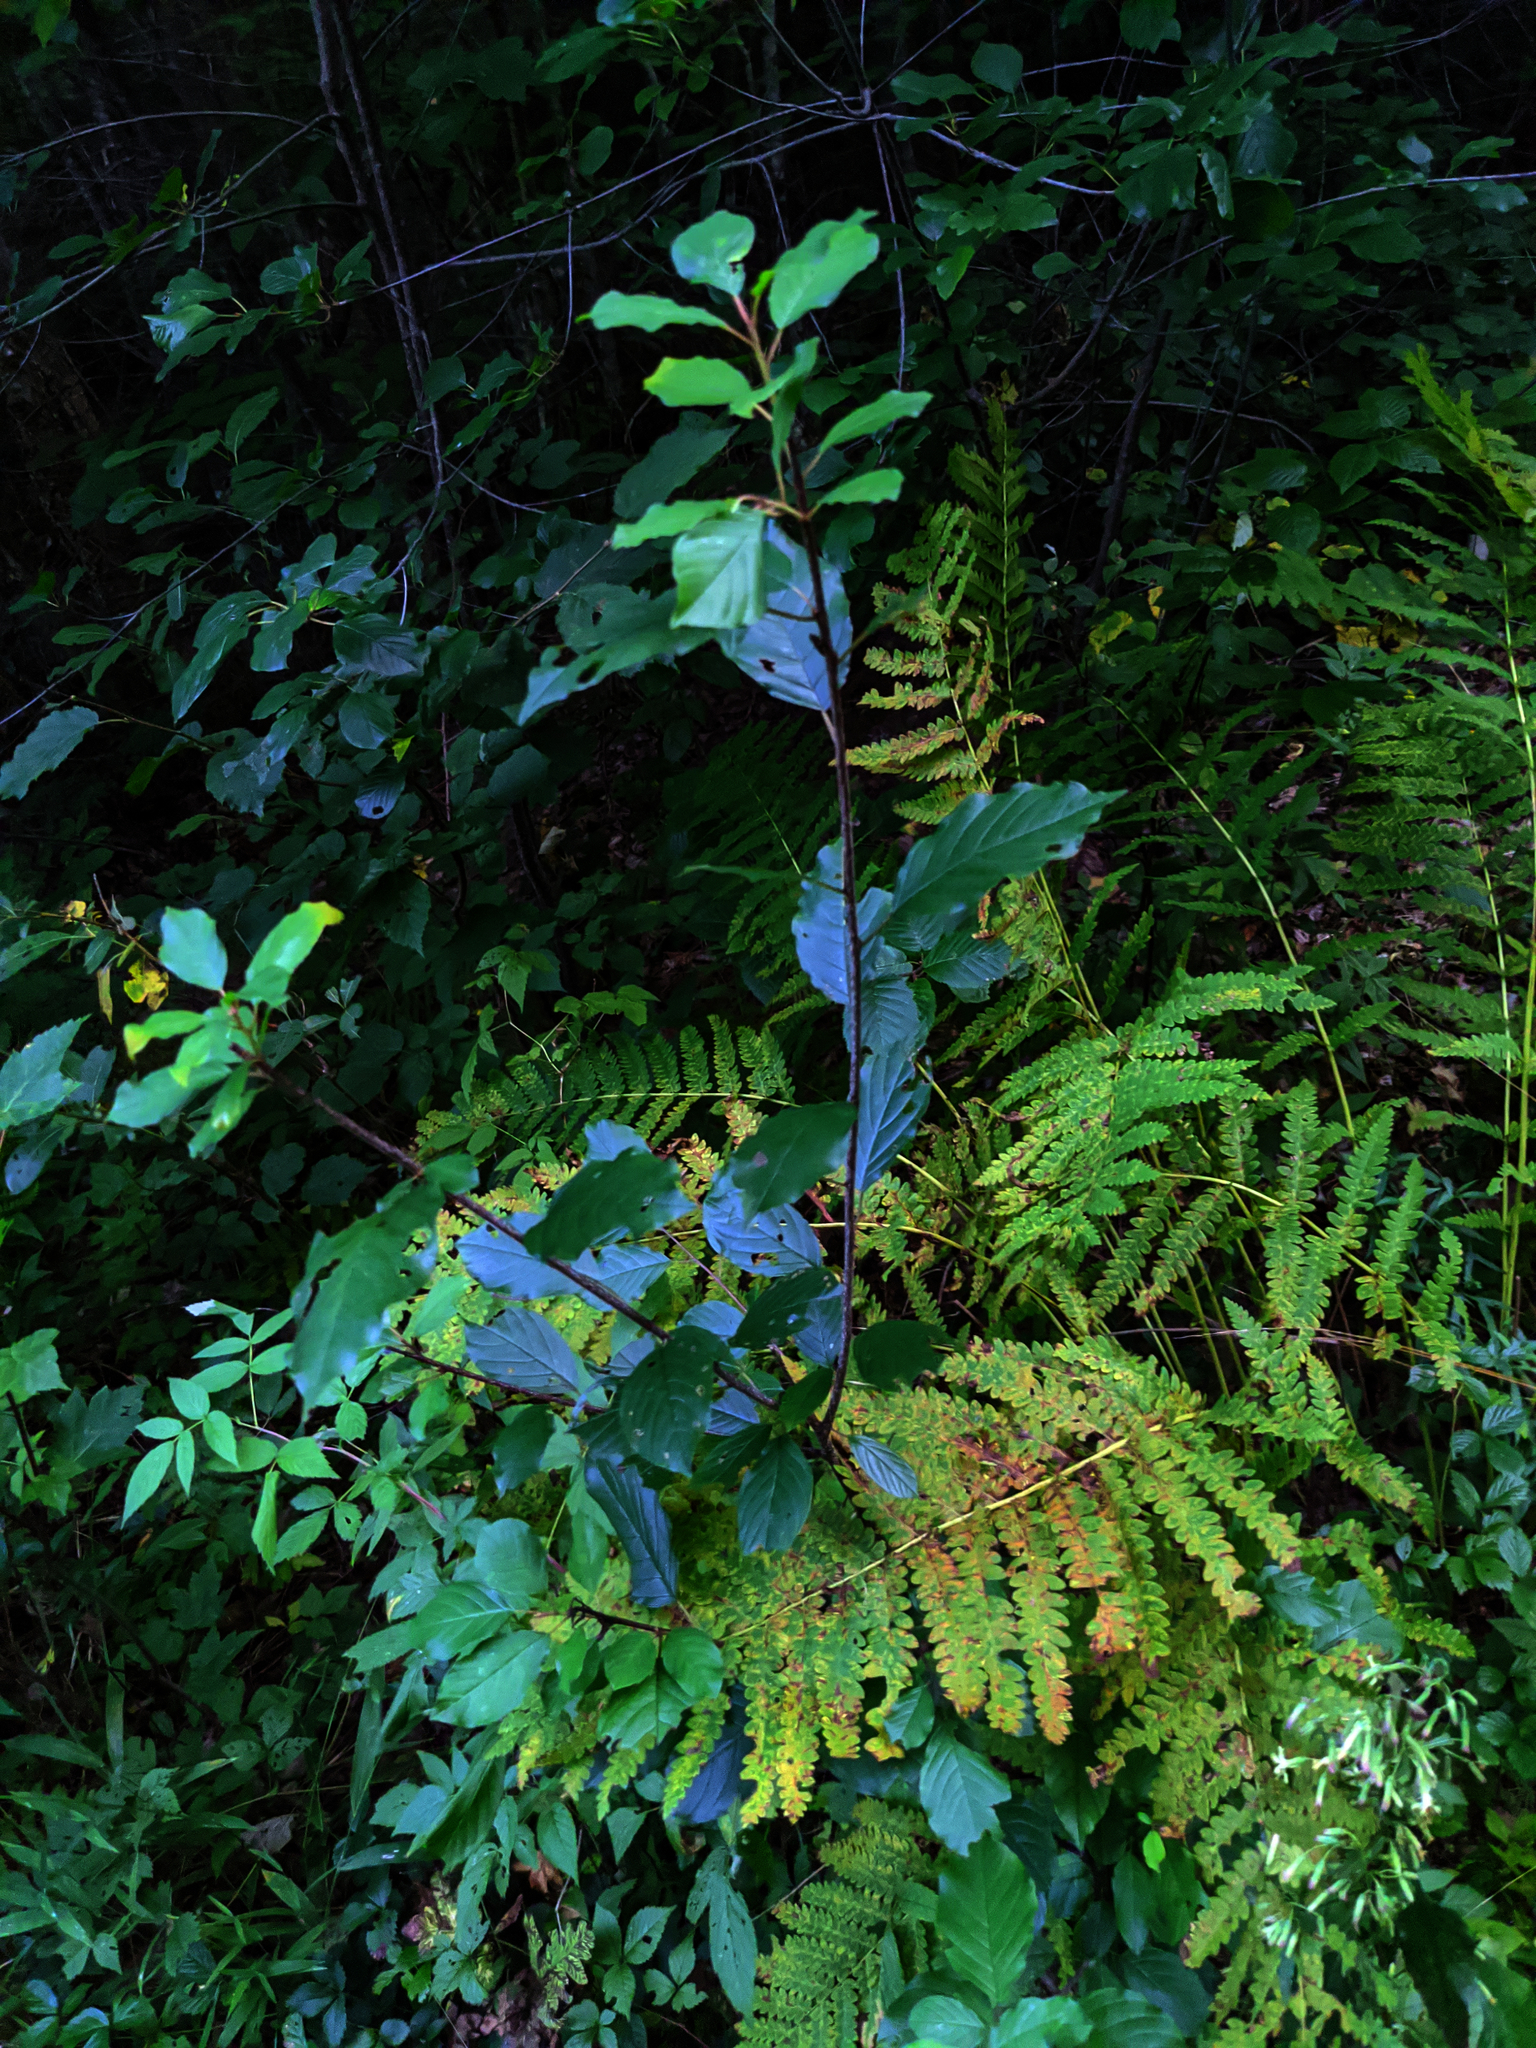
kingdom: Plantae
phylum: Tracheophyta
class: Magnoliopsida
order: Rosales
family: Rhamnaceae
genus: Frangula
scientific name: Frangula alnus
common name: Alder buckthorn
